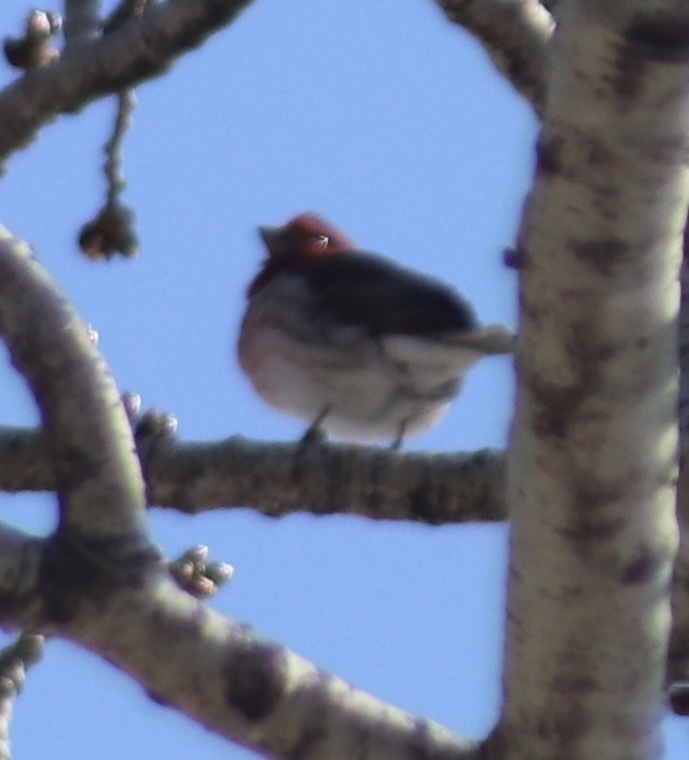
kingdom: Animalia
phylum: Chordata
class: Aves
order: Passeriformes
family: Fringillidae
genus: Haemorhous
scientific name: Haemorhous purpureus
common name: Purple finch
